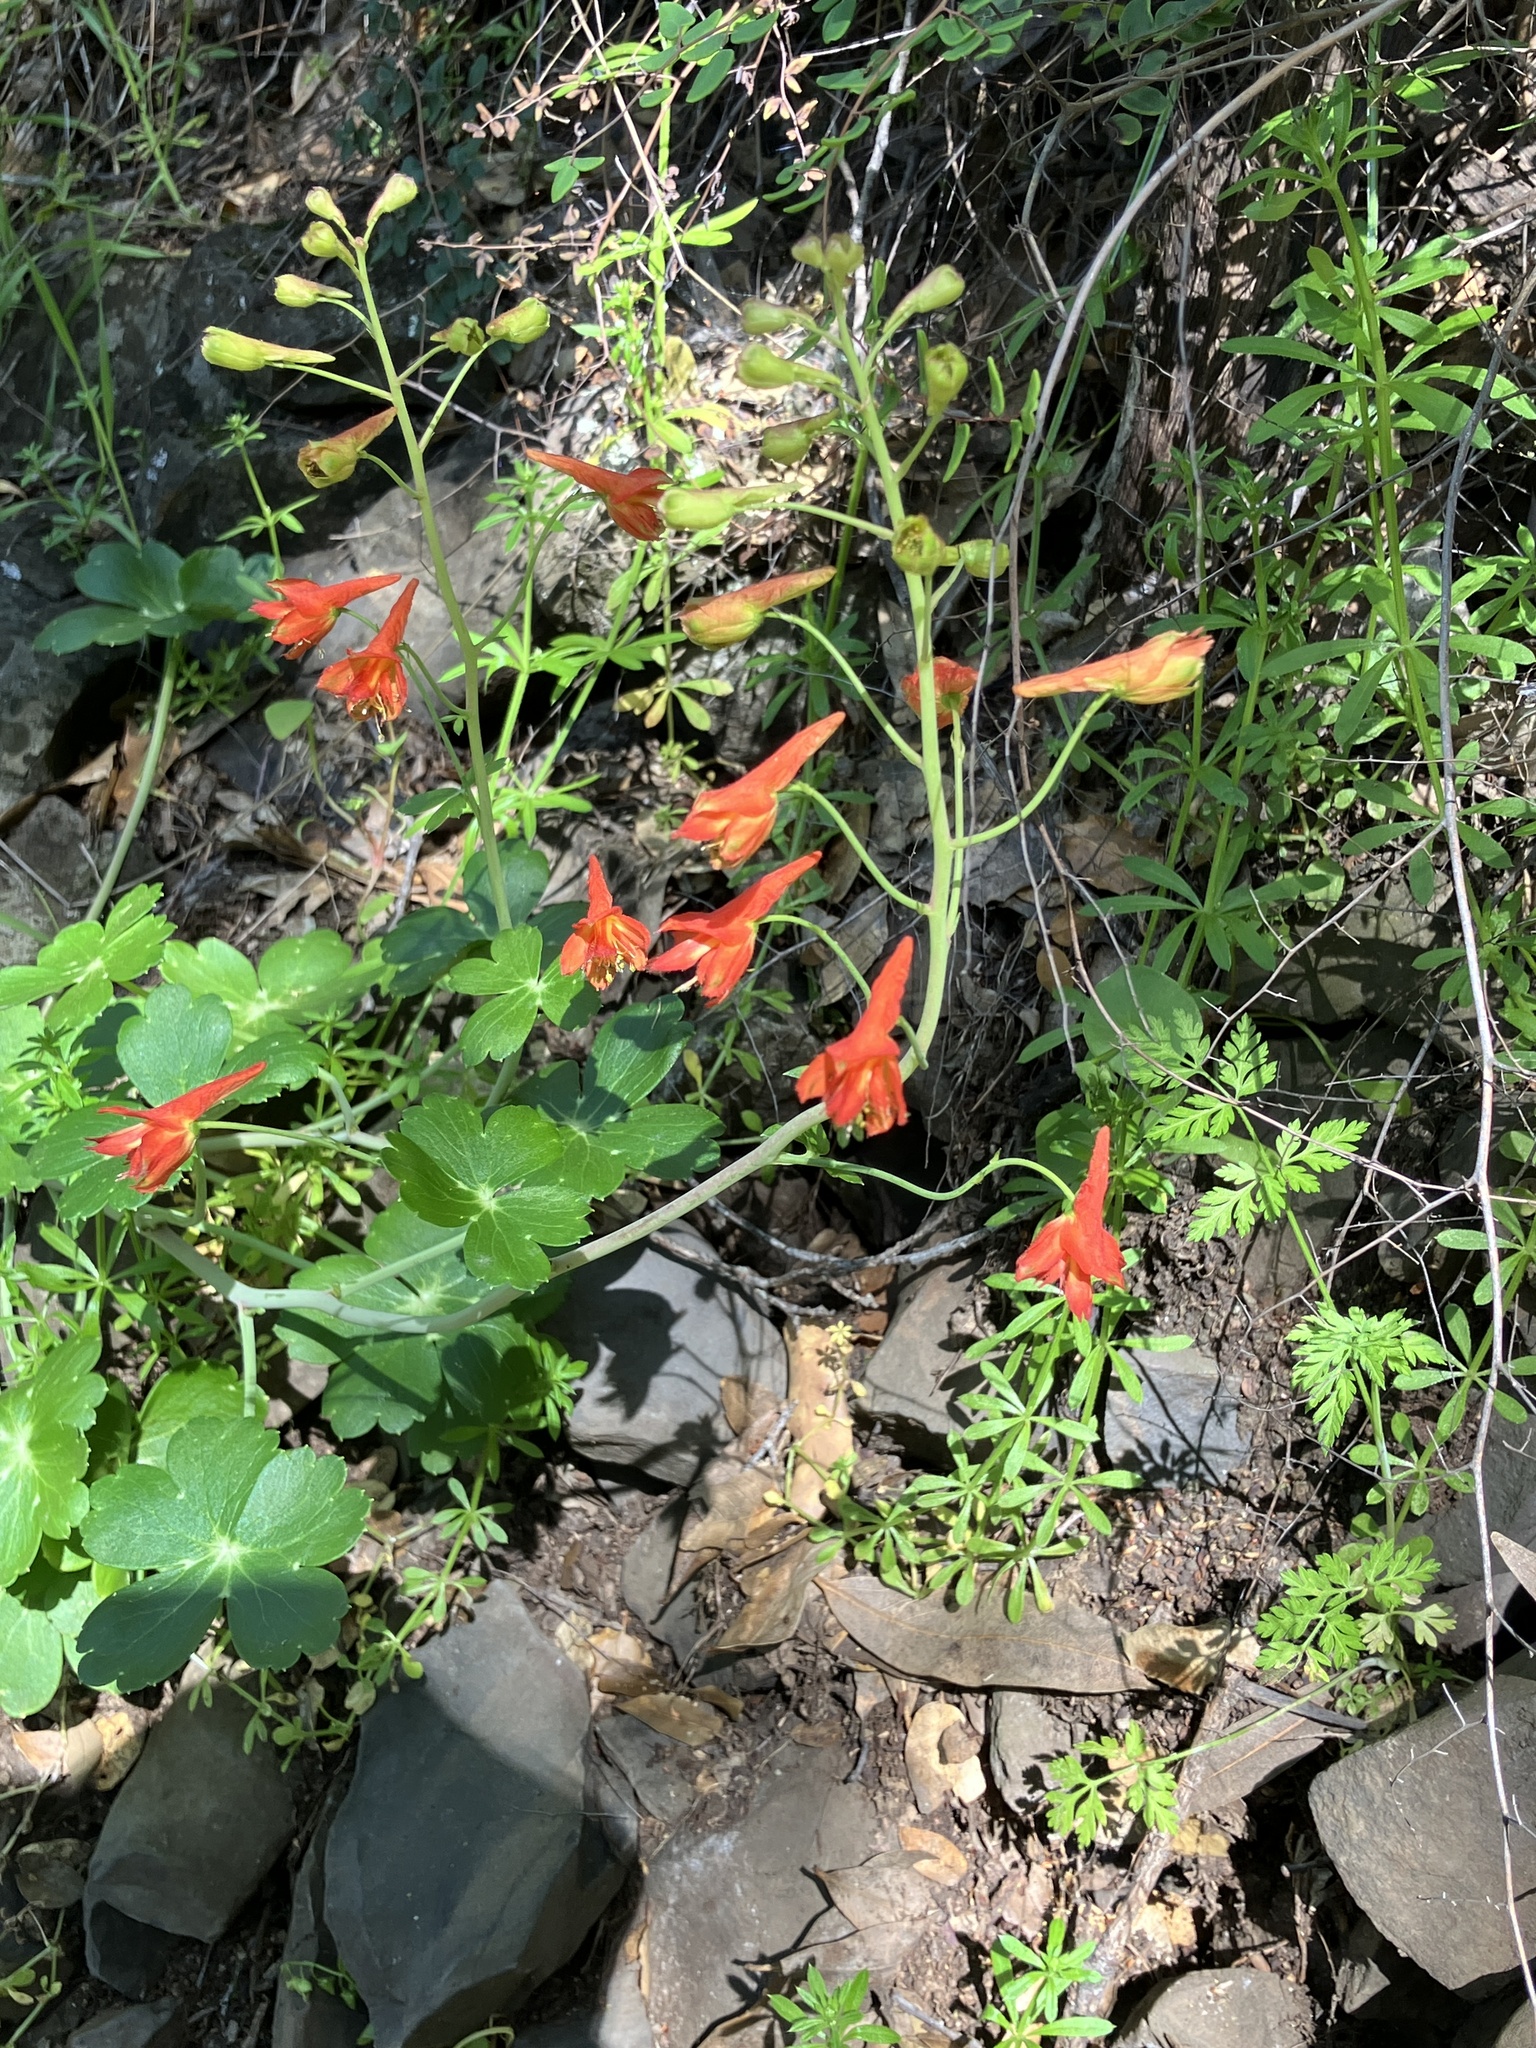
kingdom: Plantae
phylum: Tracheophyta
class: Magnoliopsida
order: Ranunculales
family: Ranunculaceae
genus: Delphinium
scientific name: Delphinium nudicaule
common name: Red larkspur
